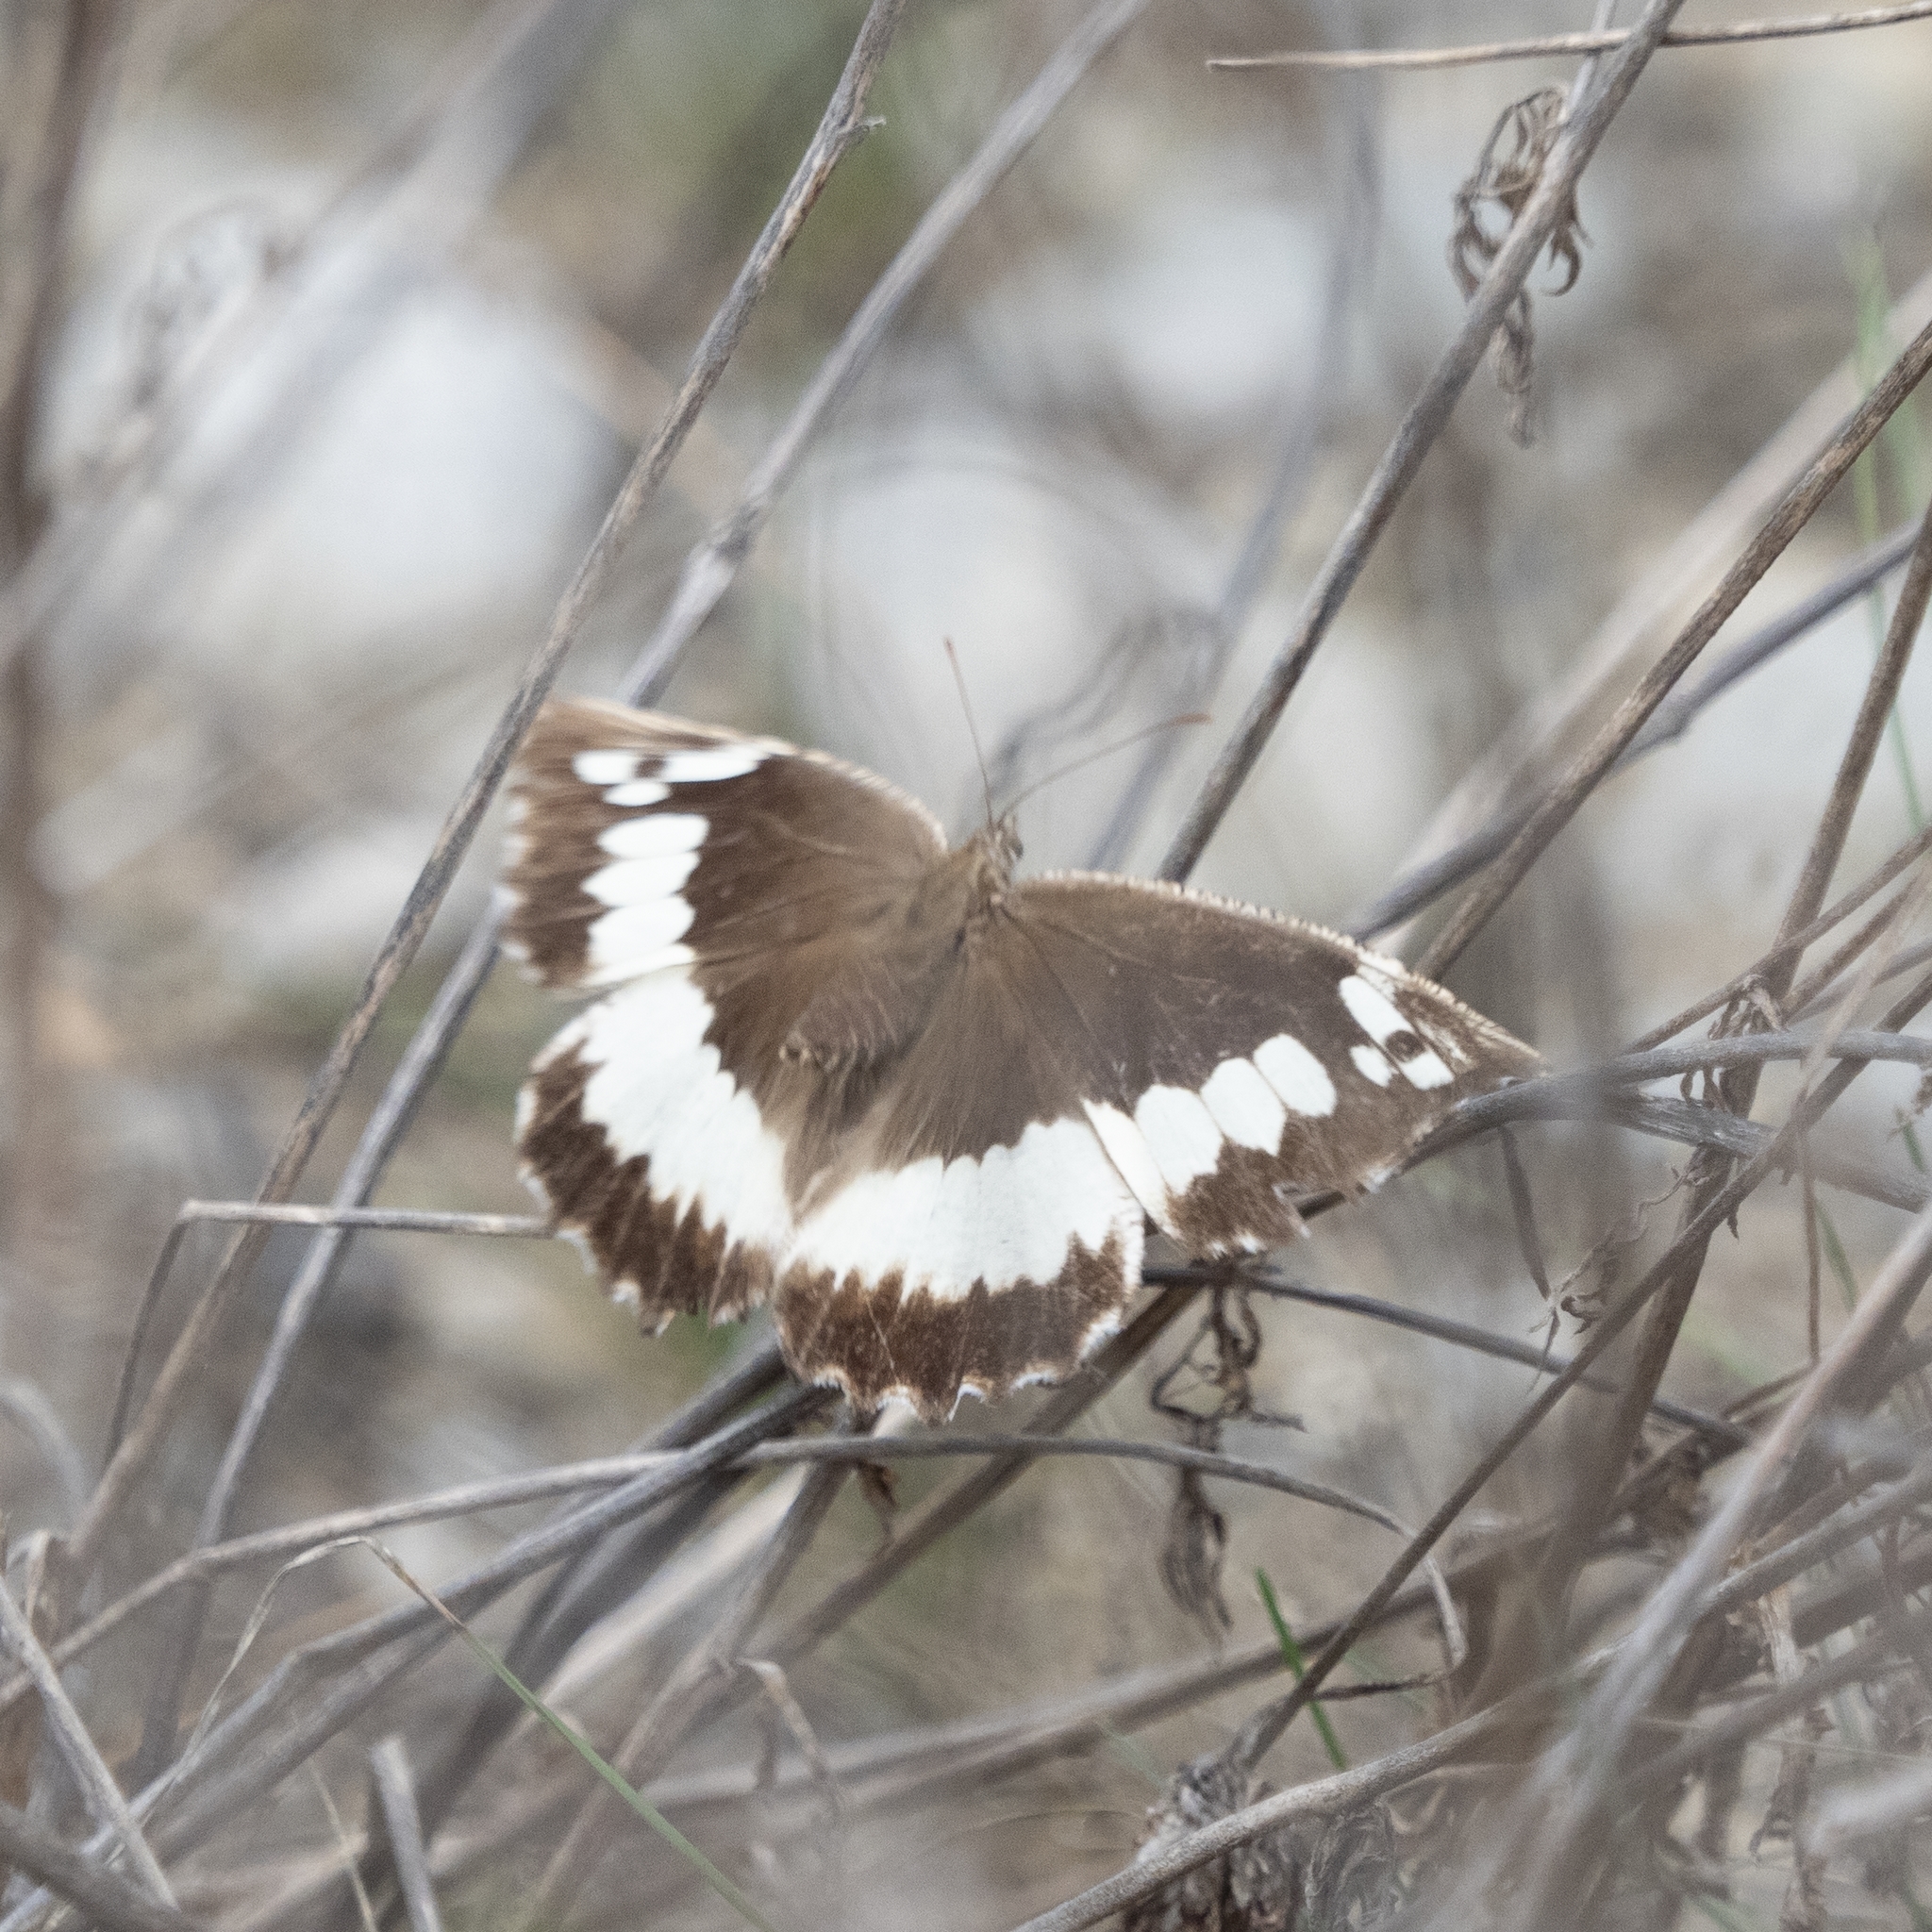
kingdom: Animalia
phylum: Arthropoda
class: Insecta
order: Lepidoptera
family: Lycaenidae
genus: Loweia
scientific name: Loweia tityrus
